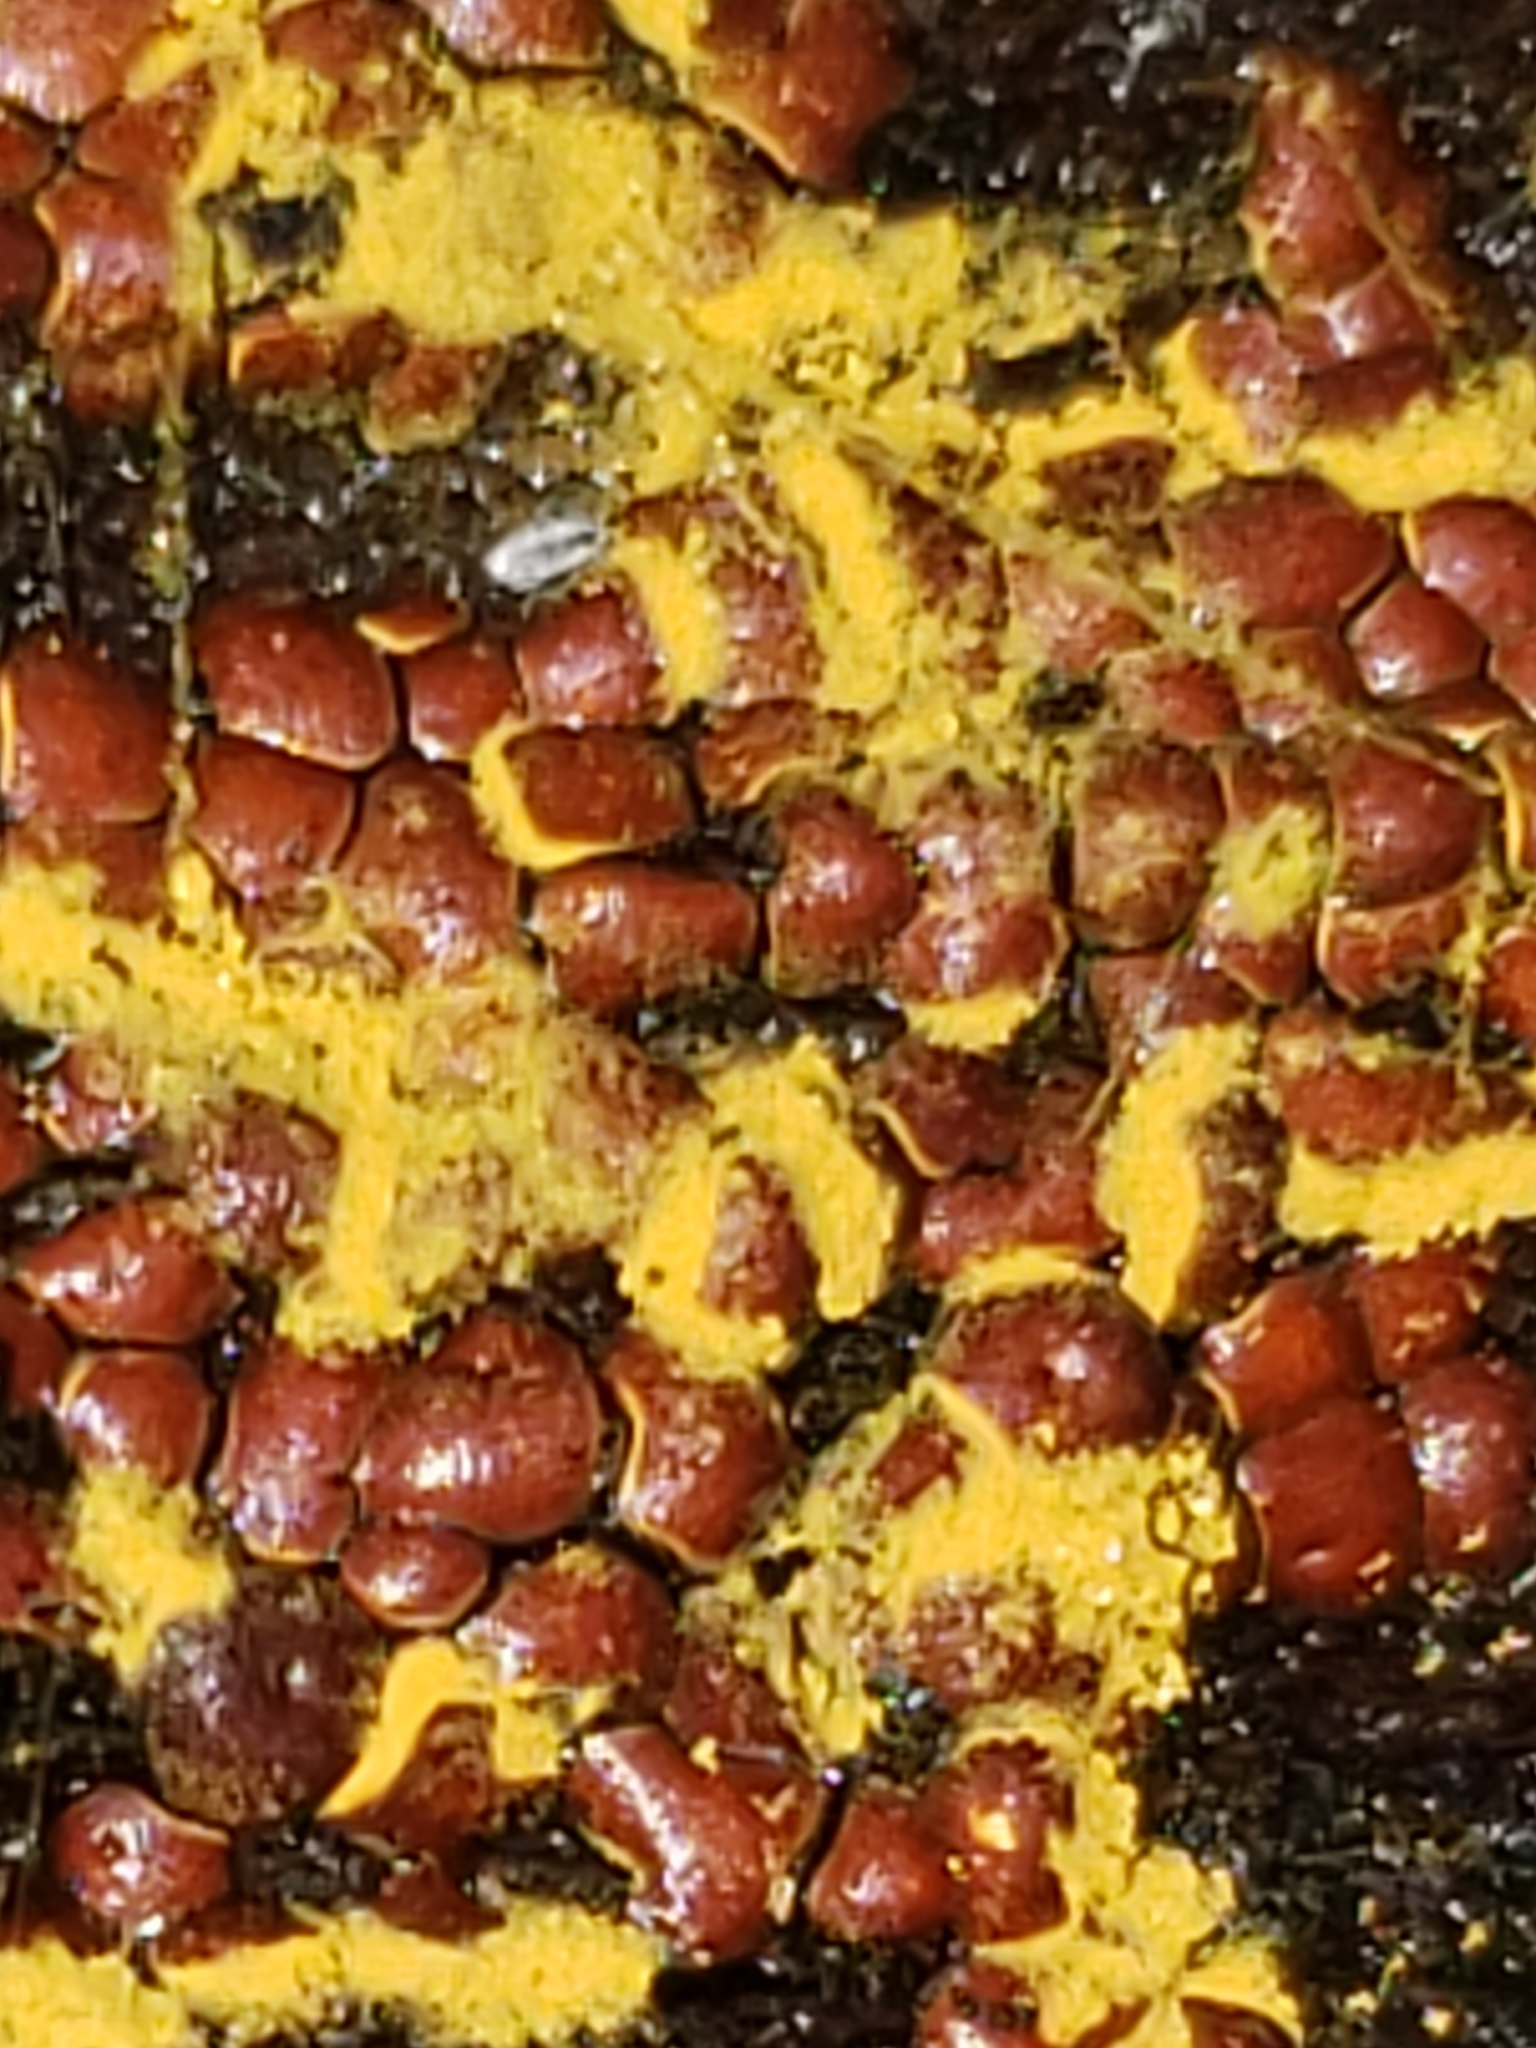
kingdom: Protozoa
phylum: Mycetozoa
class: Myxomycetes
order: Trichiales
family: Trichiaceae
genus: Perichaena
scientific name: Perichaena depressa
